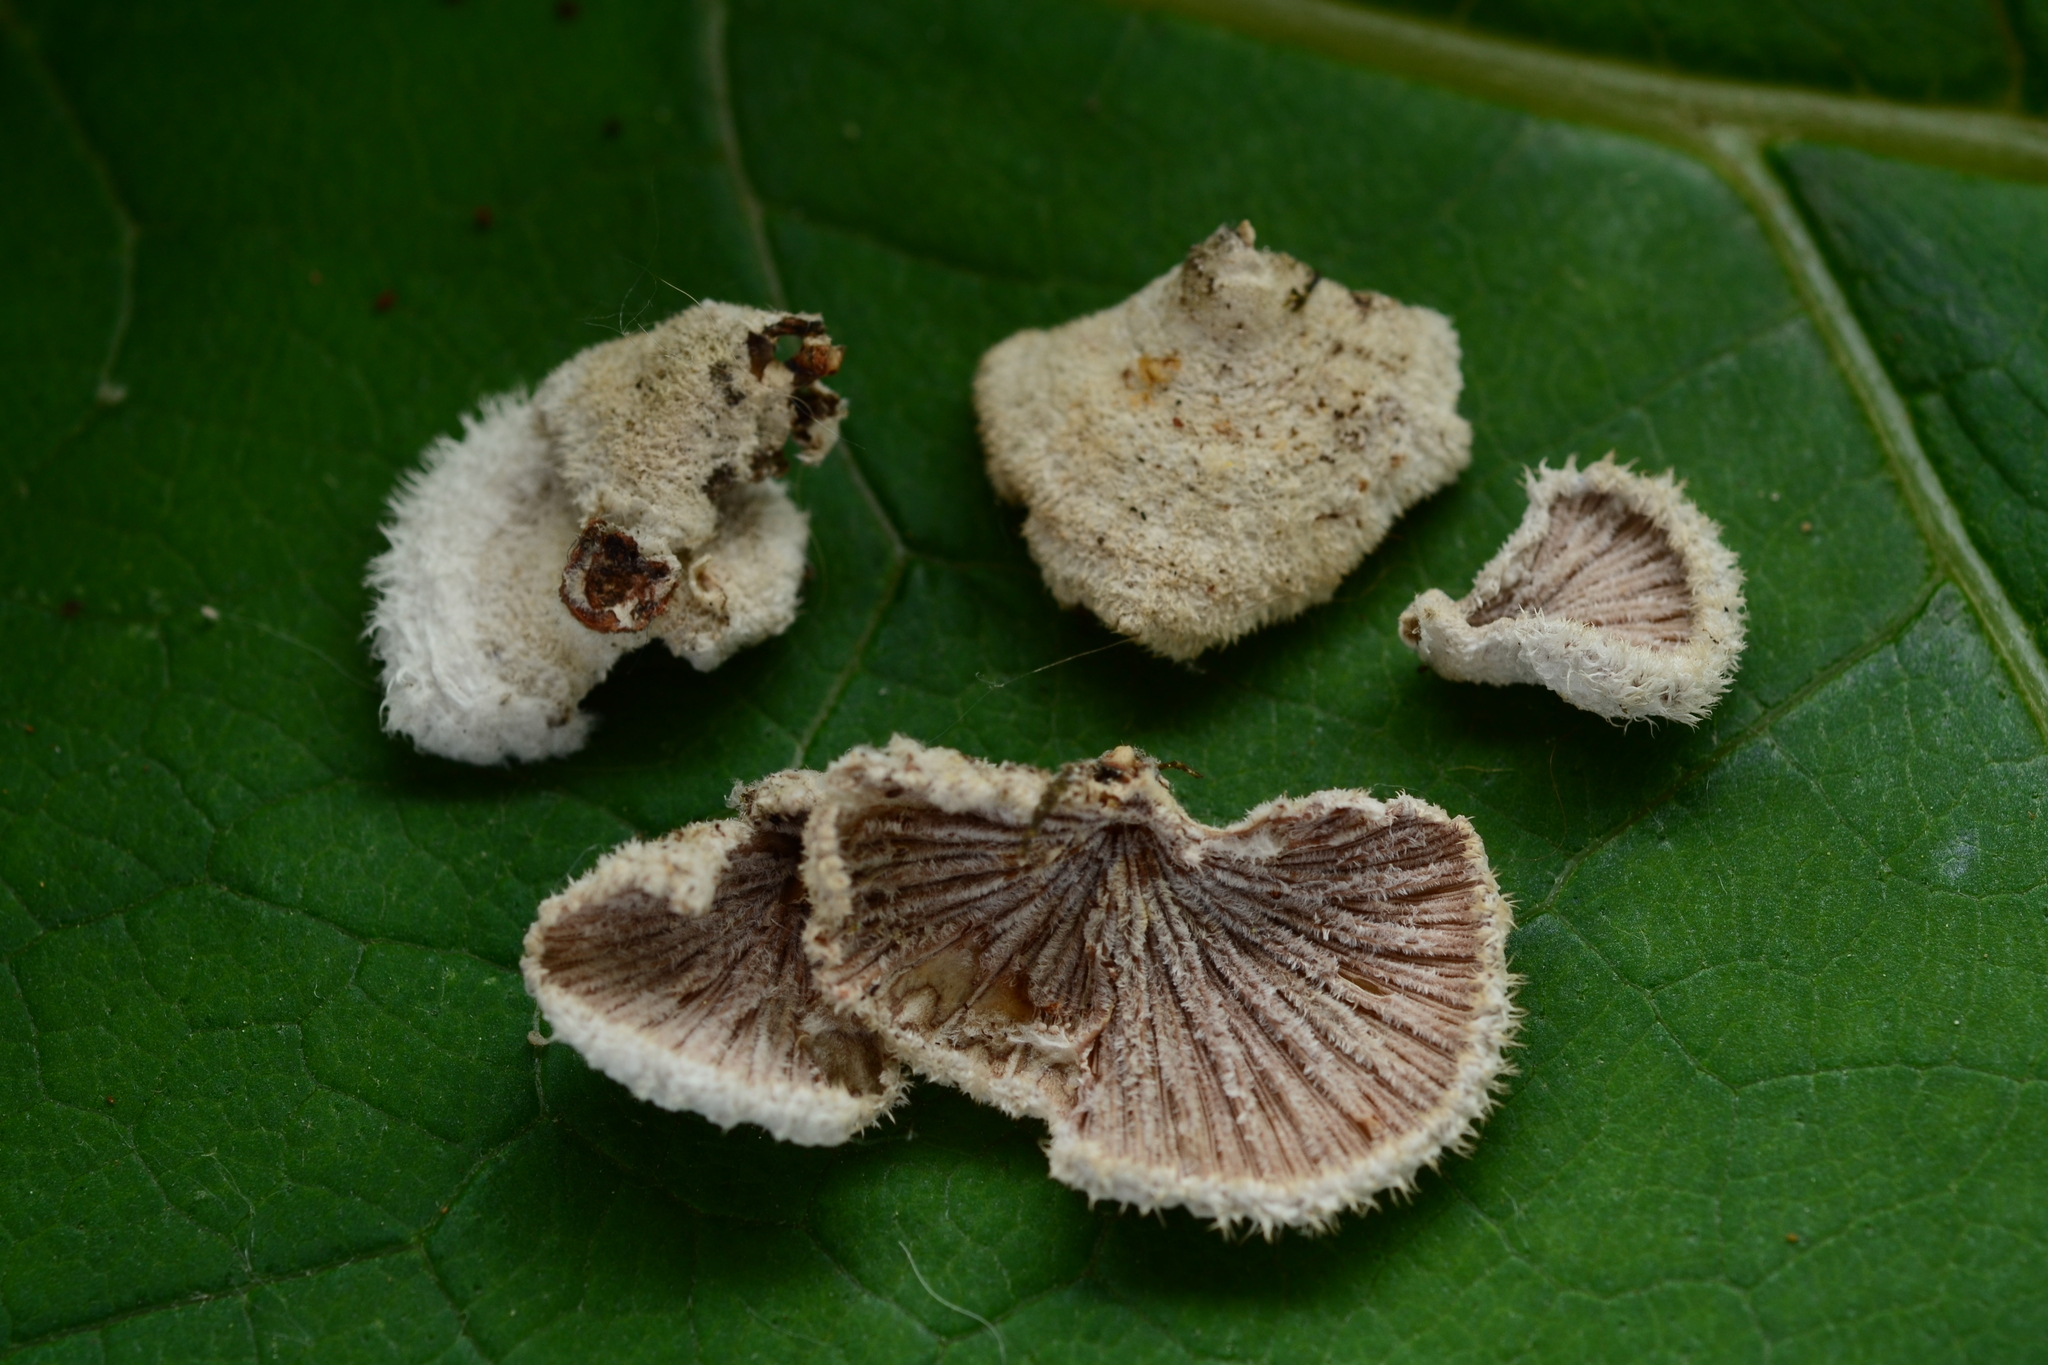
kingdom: Fungi
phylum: Basidiomycota
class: Agaricomycetes
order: Agaricales
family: Schizophyllaceae
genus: Schizophyllum
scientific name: Schizophyllum commune
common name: Common porecrust
